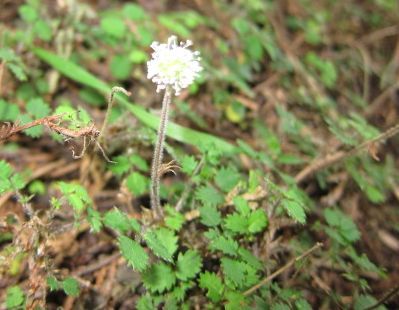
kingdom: Plantae
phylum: Tracheophyta
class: Magnoliopsida
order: Rosales
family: Rosaceae
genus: Acaena
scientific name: Acaena juvenca
